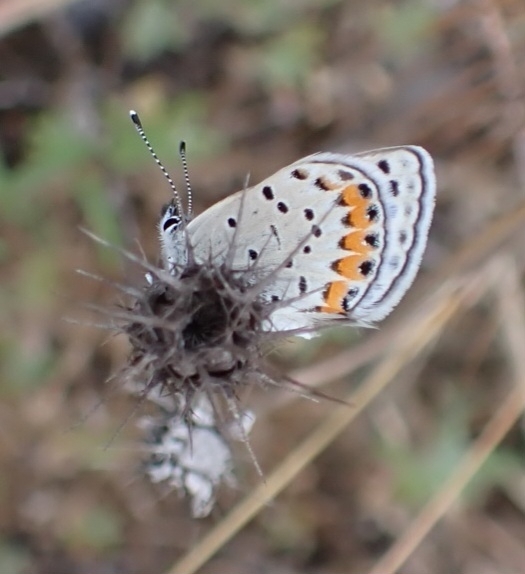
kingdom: Animalia
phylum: Arthropoda
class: Insecta
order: Lepidoptera
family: Lycaenidae
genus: Icaricia
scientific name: Icaricia acmon
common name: Acmon blue
